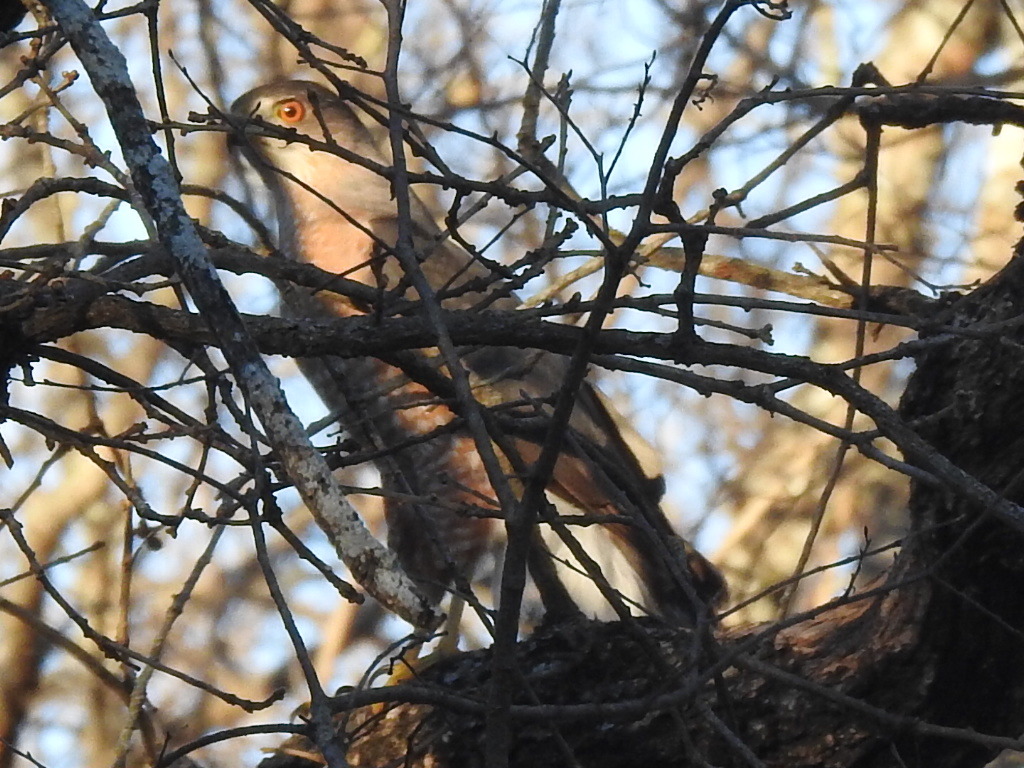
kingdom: Animalia
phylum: Chordata
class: Aves
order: Accipitriformes
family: Accipitridae
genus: Accipiter
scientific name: Accipiter cooperii
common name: Cooper's hawk
